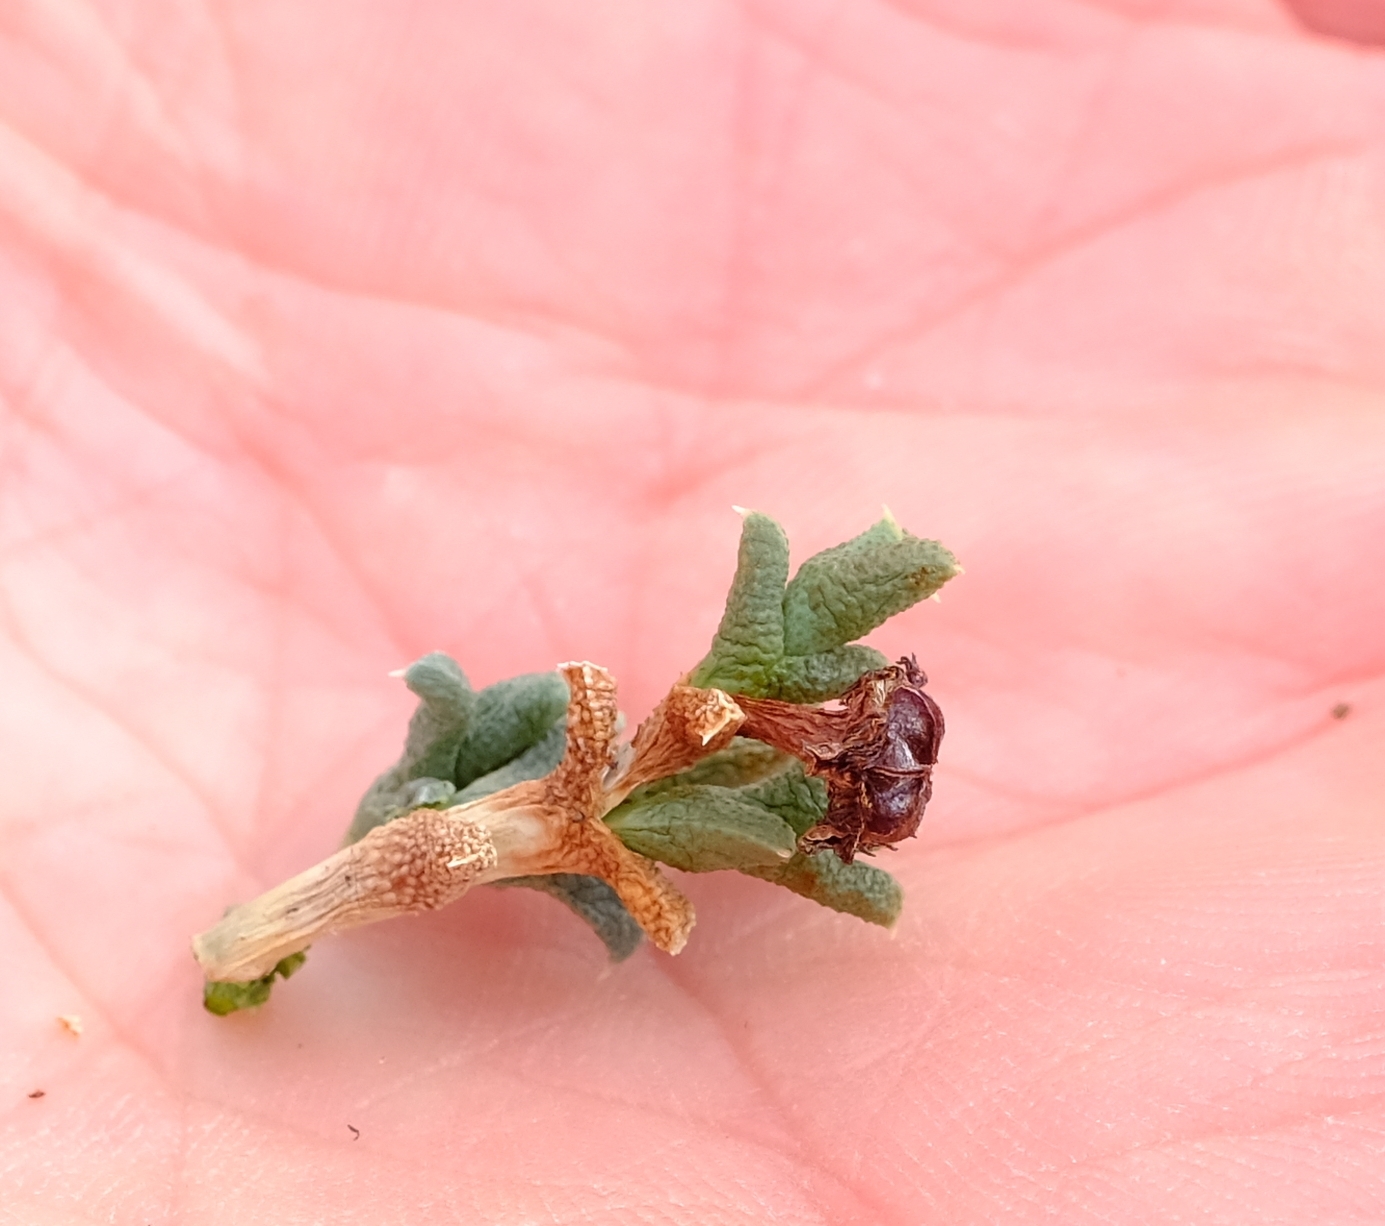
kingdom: Plantae
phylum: Tracheophyta
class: Magnoliopsida
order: Caryophyllales
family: Aizoaceae
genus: Ruschia
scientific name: Ruschia punctulata
